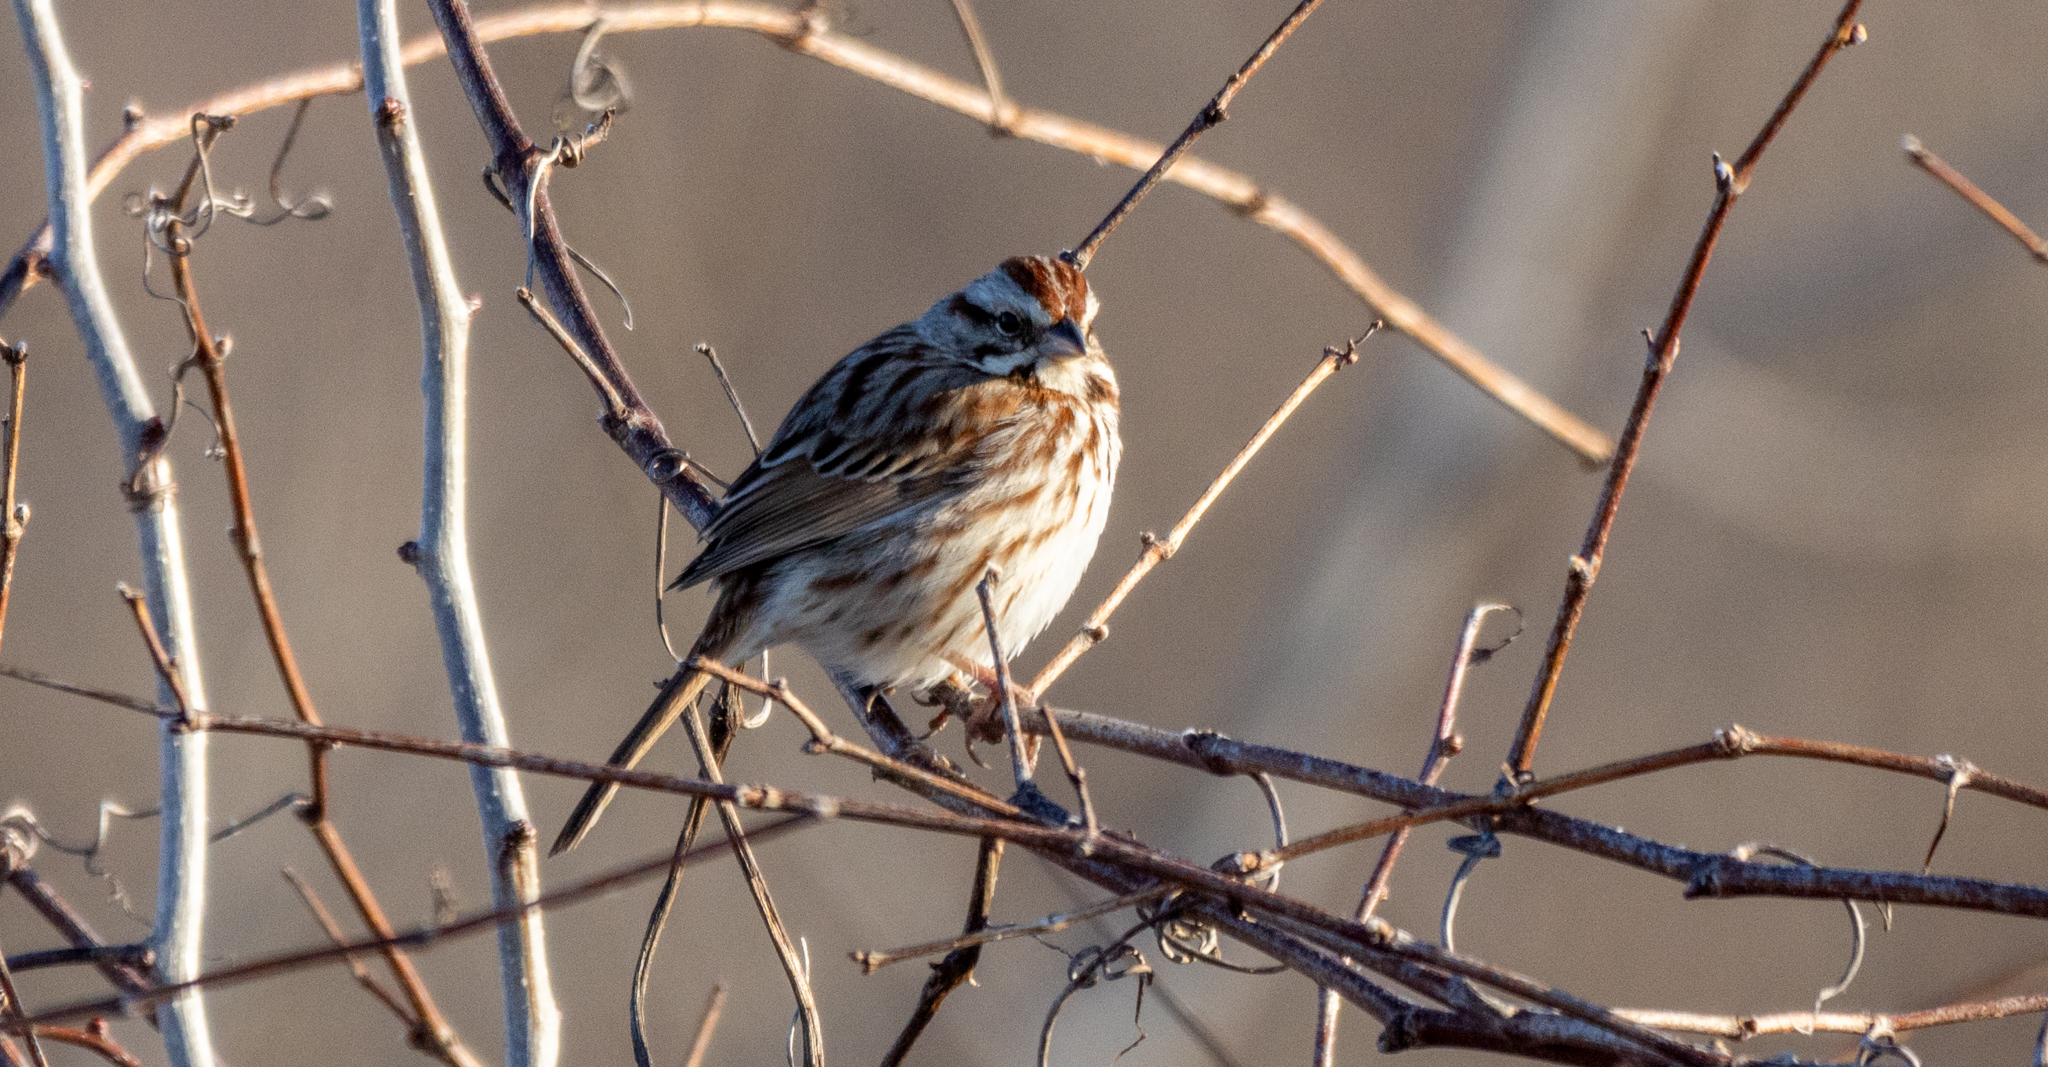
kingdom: Animalia
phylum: Chordata
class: Aves
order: Passeriformes
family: Passerellidae
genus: Melospiza
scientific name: Melospiza melodia
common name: Song sparrow
